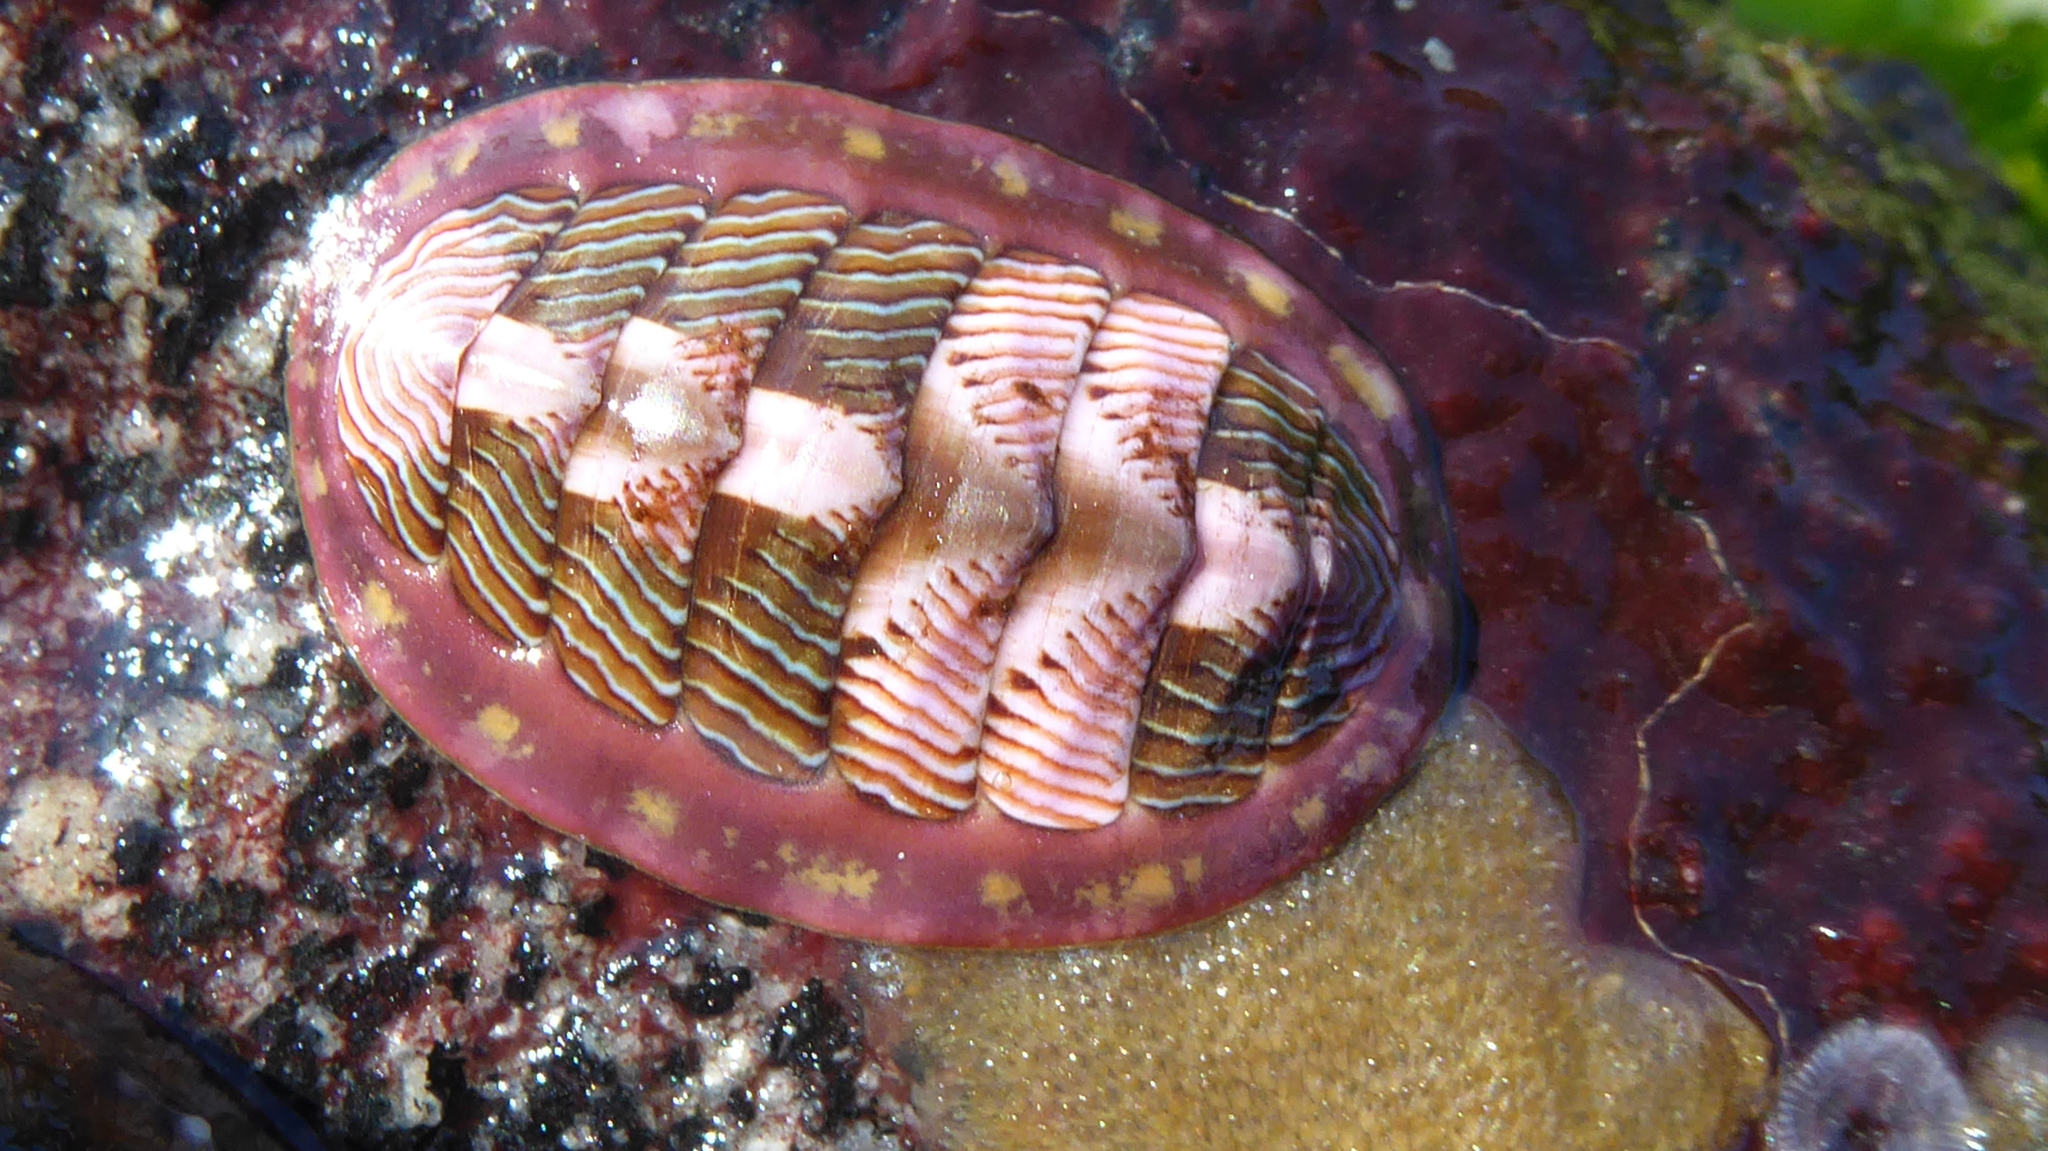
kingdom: Animalia
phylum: Mollusca
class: Polyplacophora
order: Chitonida
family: Tonicellidae
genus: Tonicella
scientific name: Tonicella lineata
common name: Lined chiton
